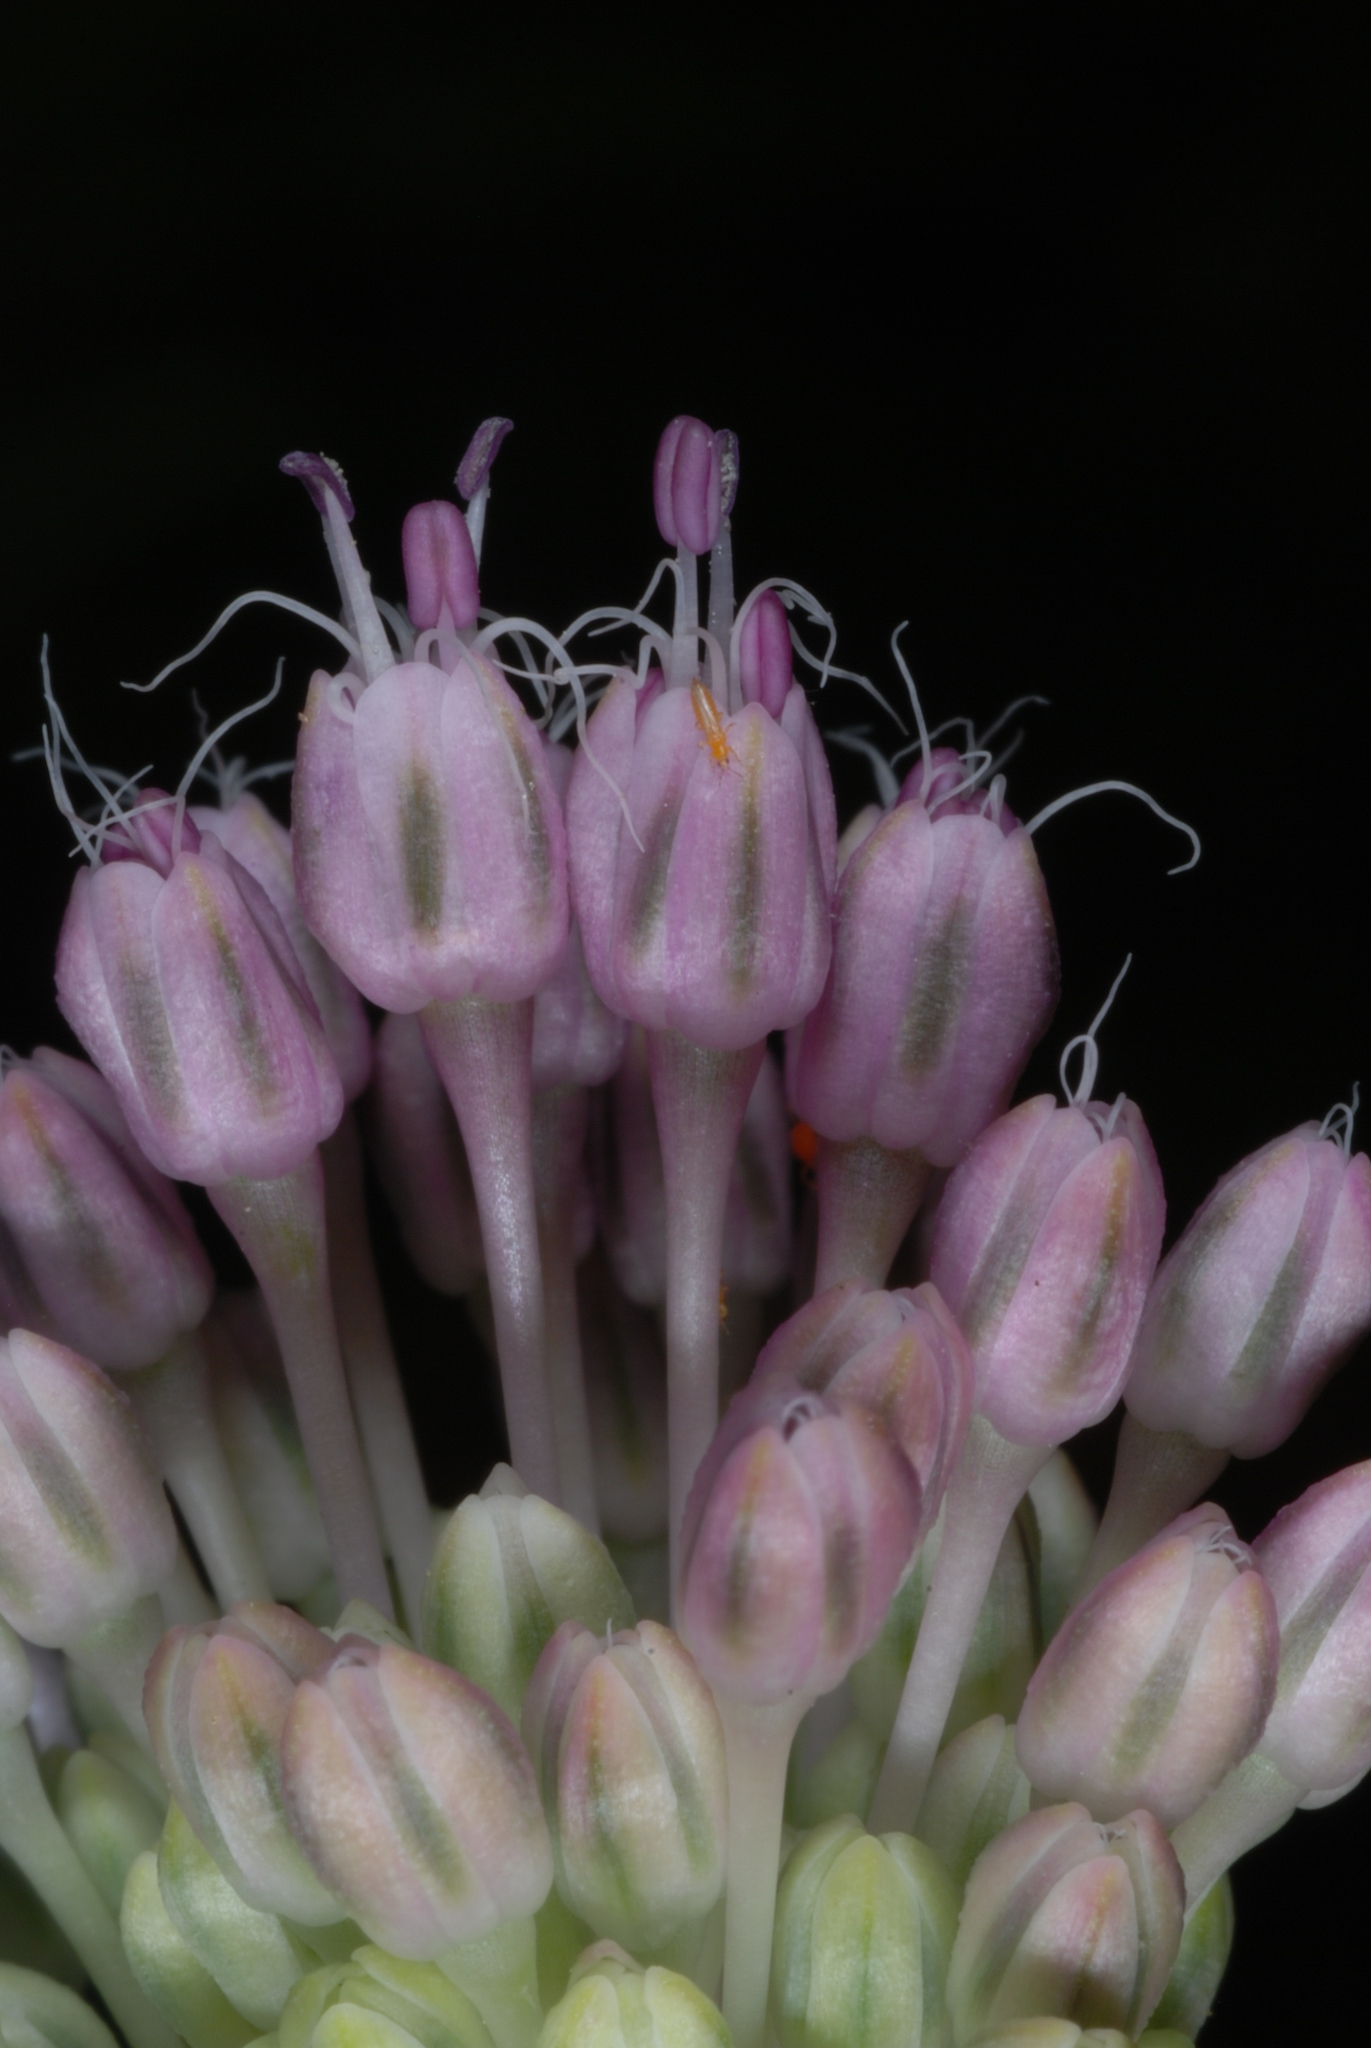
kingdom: Plantae
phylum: Tracheophyta
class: Liliopsida
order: Asparagales
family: Amaryllidaceae
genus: Allium
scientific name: Allium vineale
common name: Crow garlic
